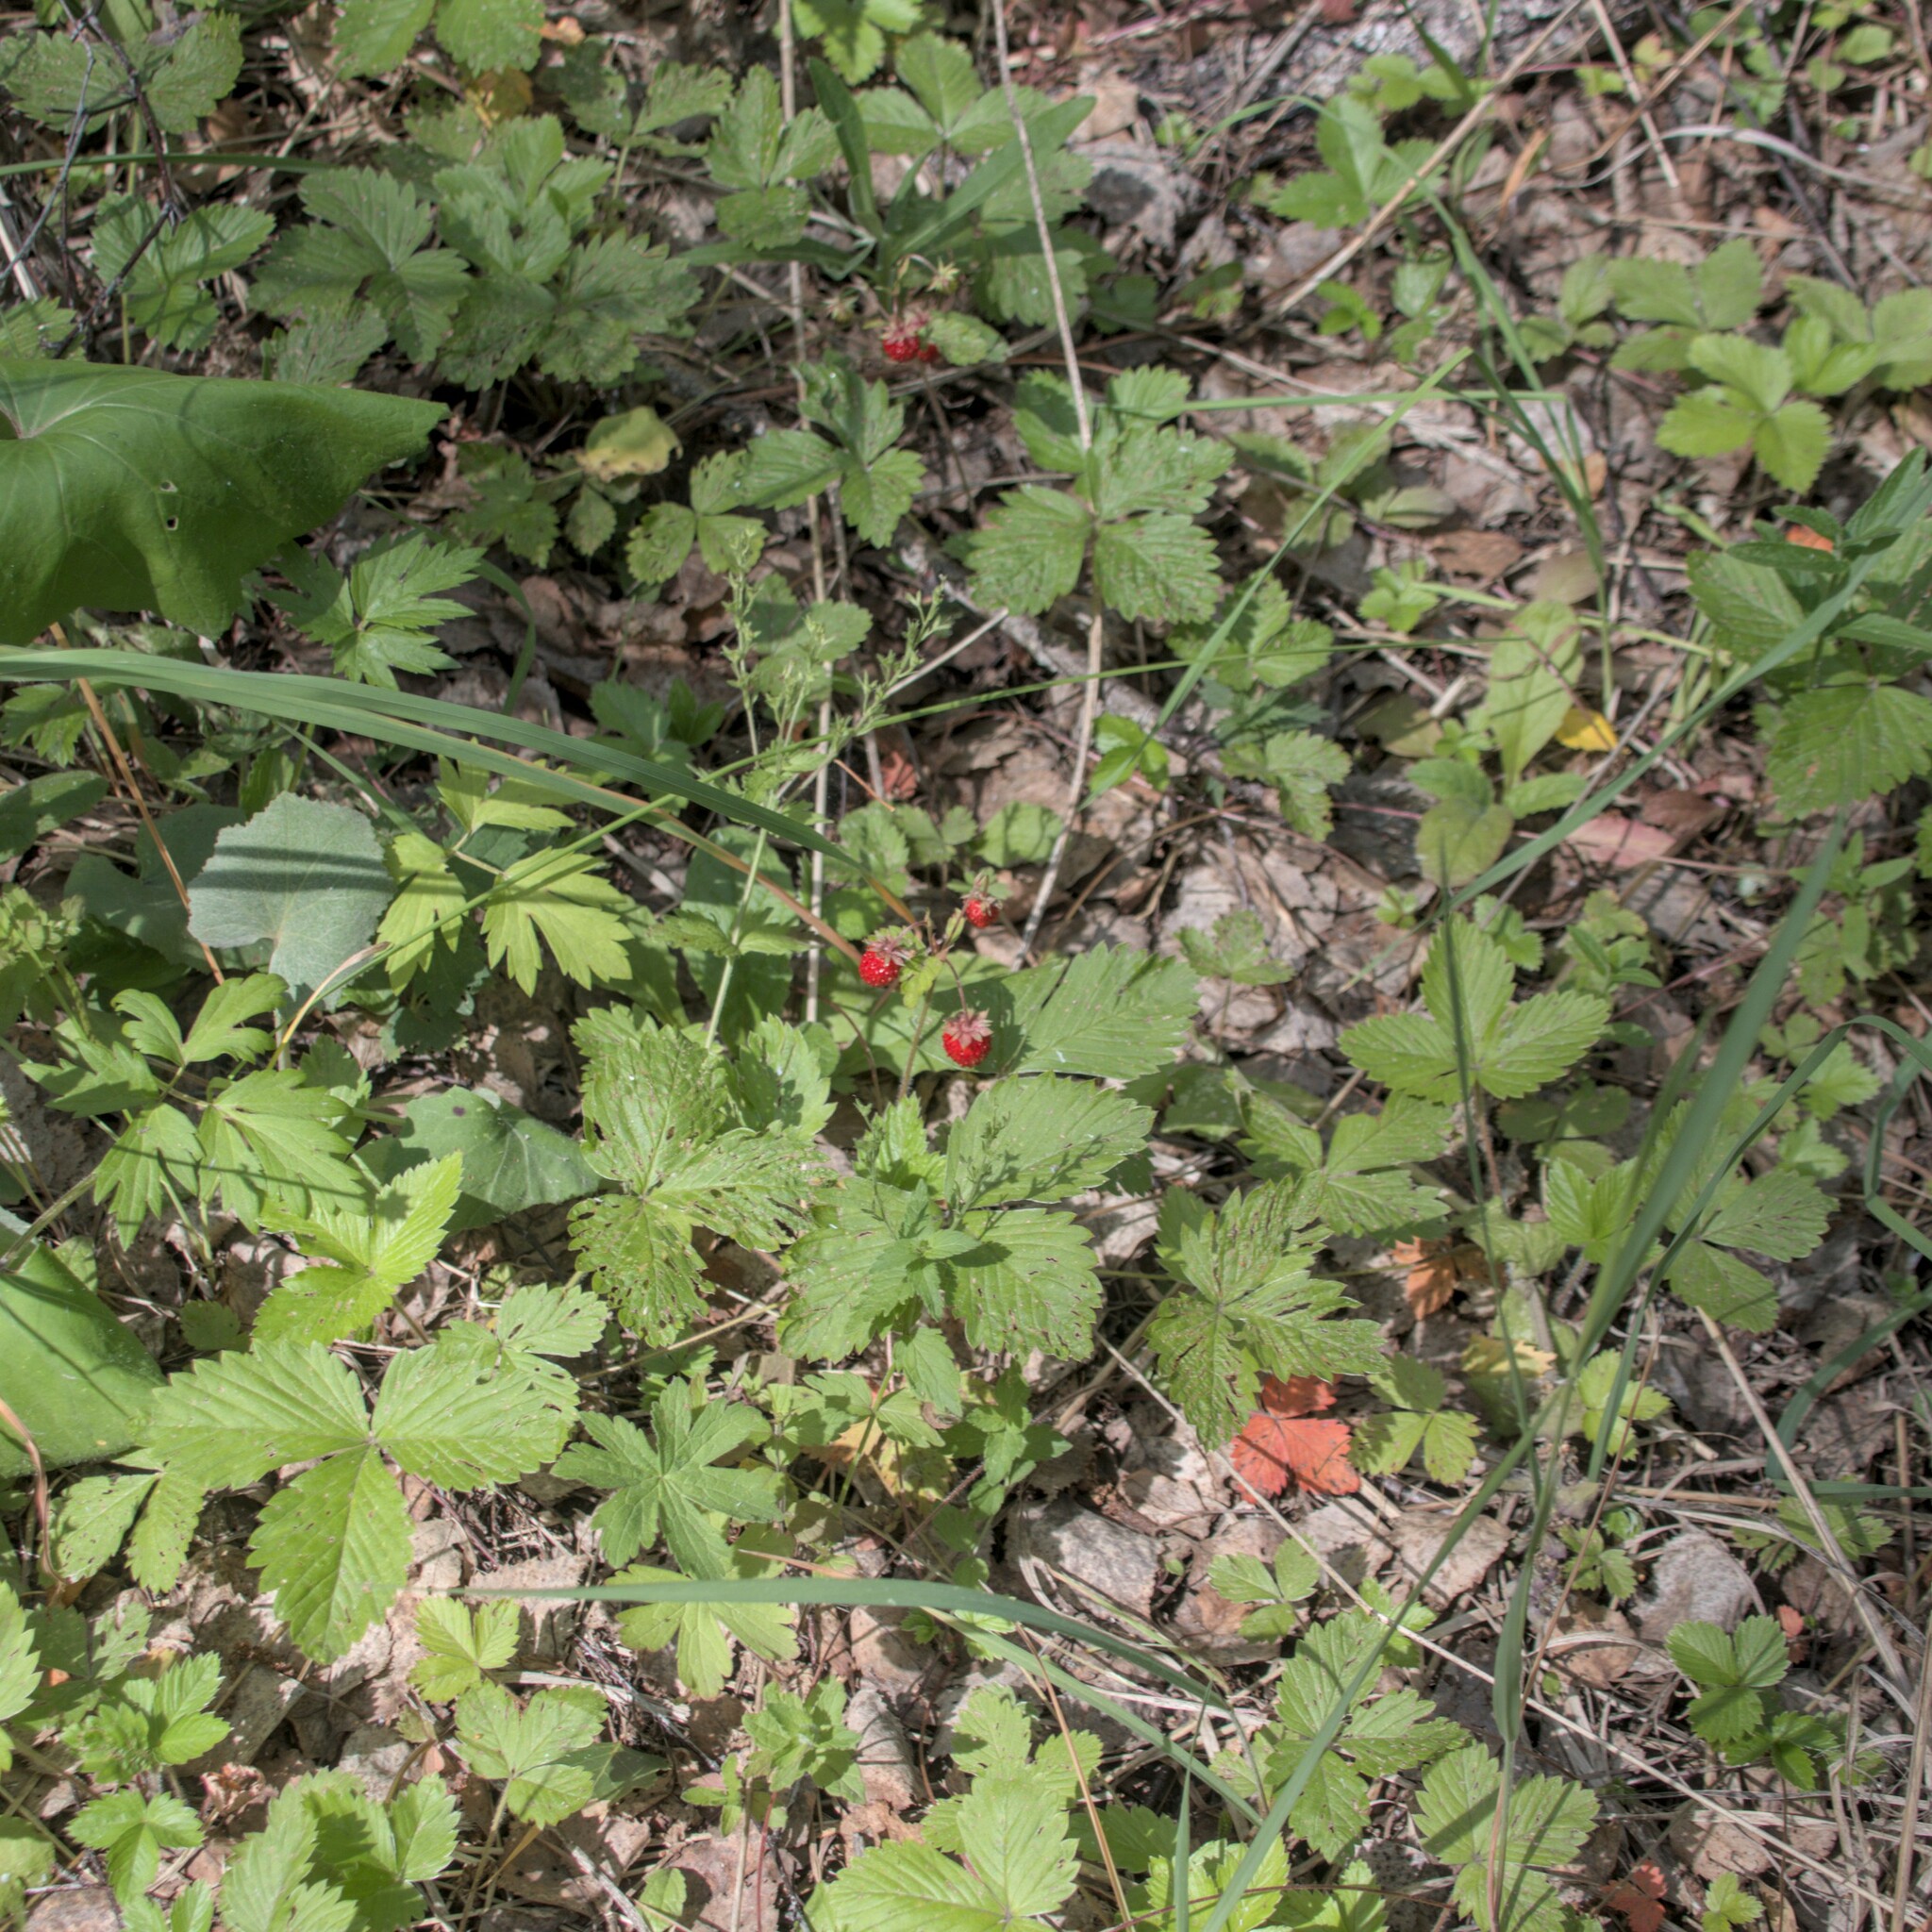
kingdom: Plantae
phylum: Tracheophyta
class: Magnoliopsida
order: Rosales
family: Rosaceae
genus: Fragaria
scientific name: Fragaria vesca
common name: Wild strawberry
